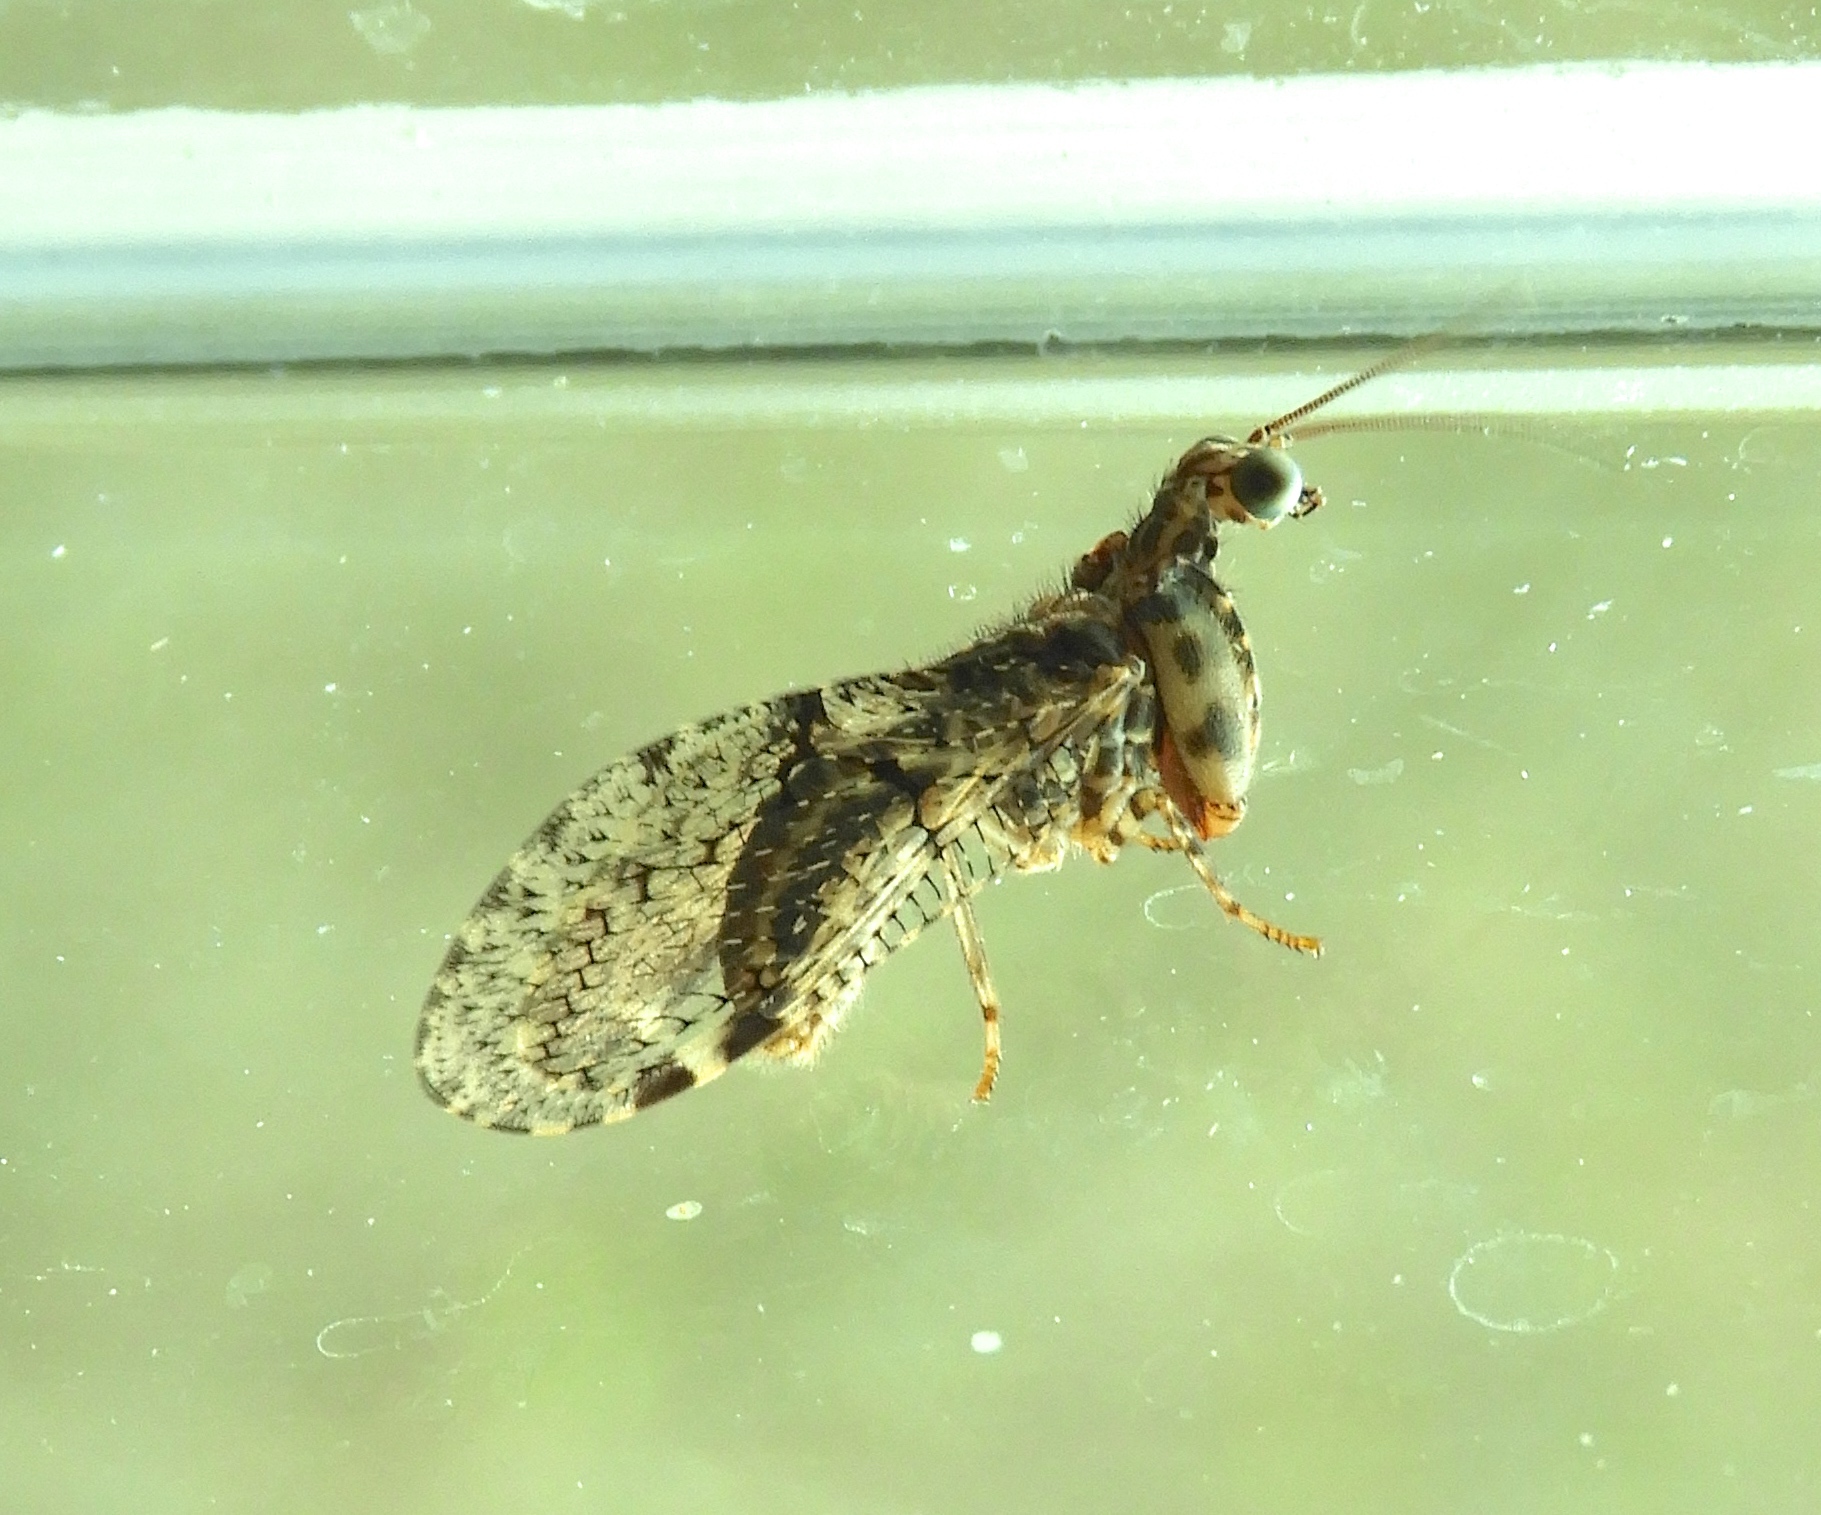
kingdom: Animalia
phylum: Arthropoda
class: Insecta
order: Neuroptera
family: Mantispidae
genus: Plega
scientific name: Plega
